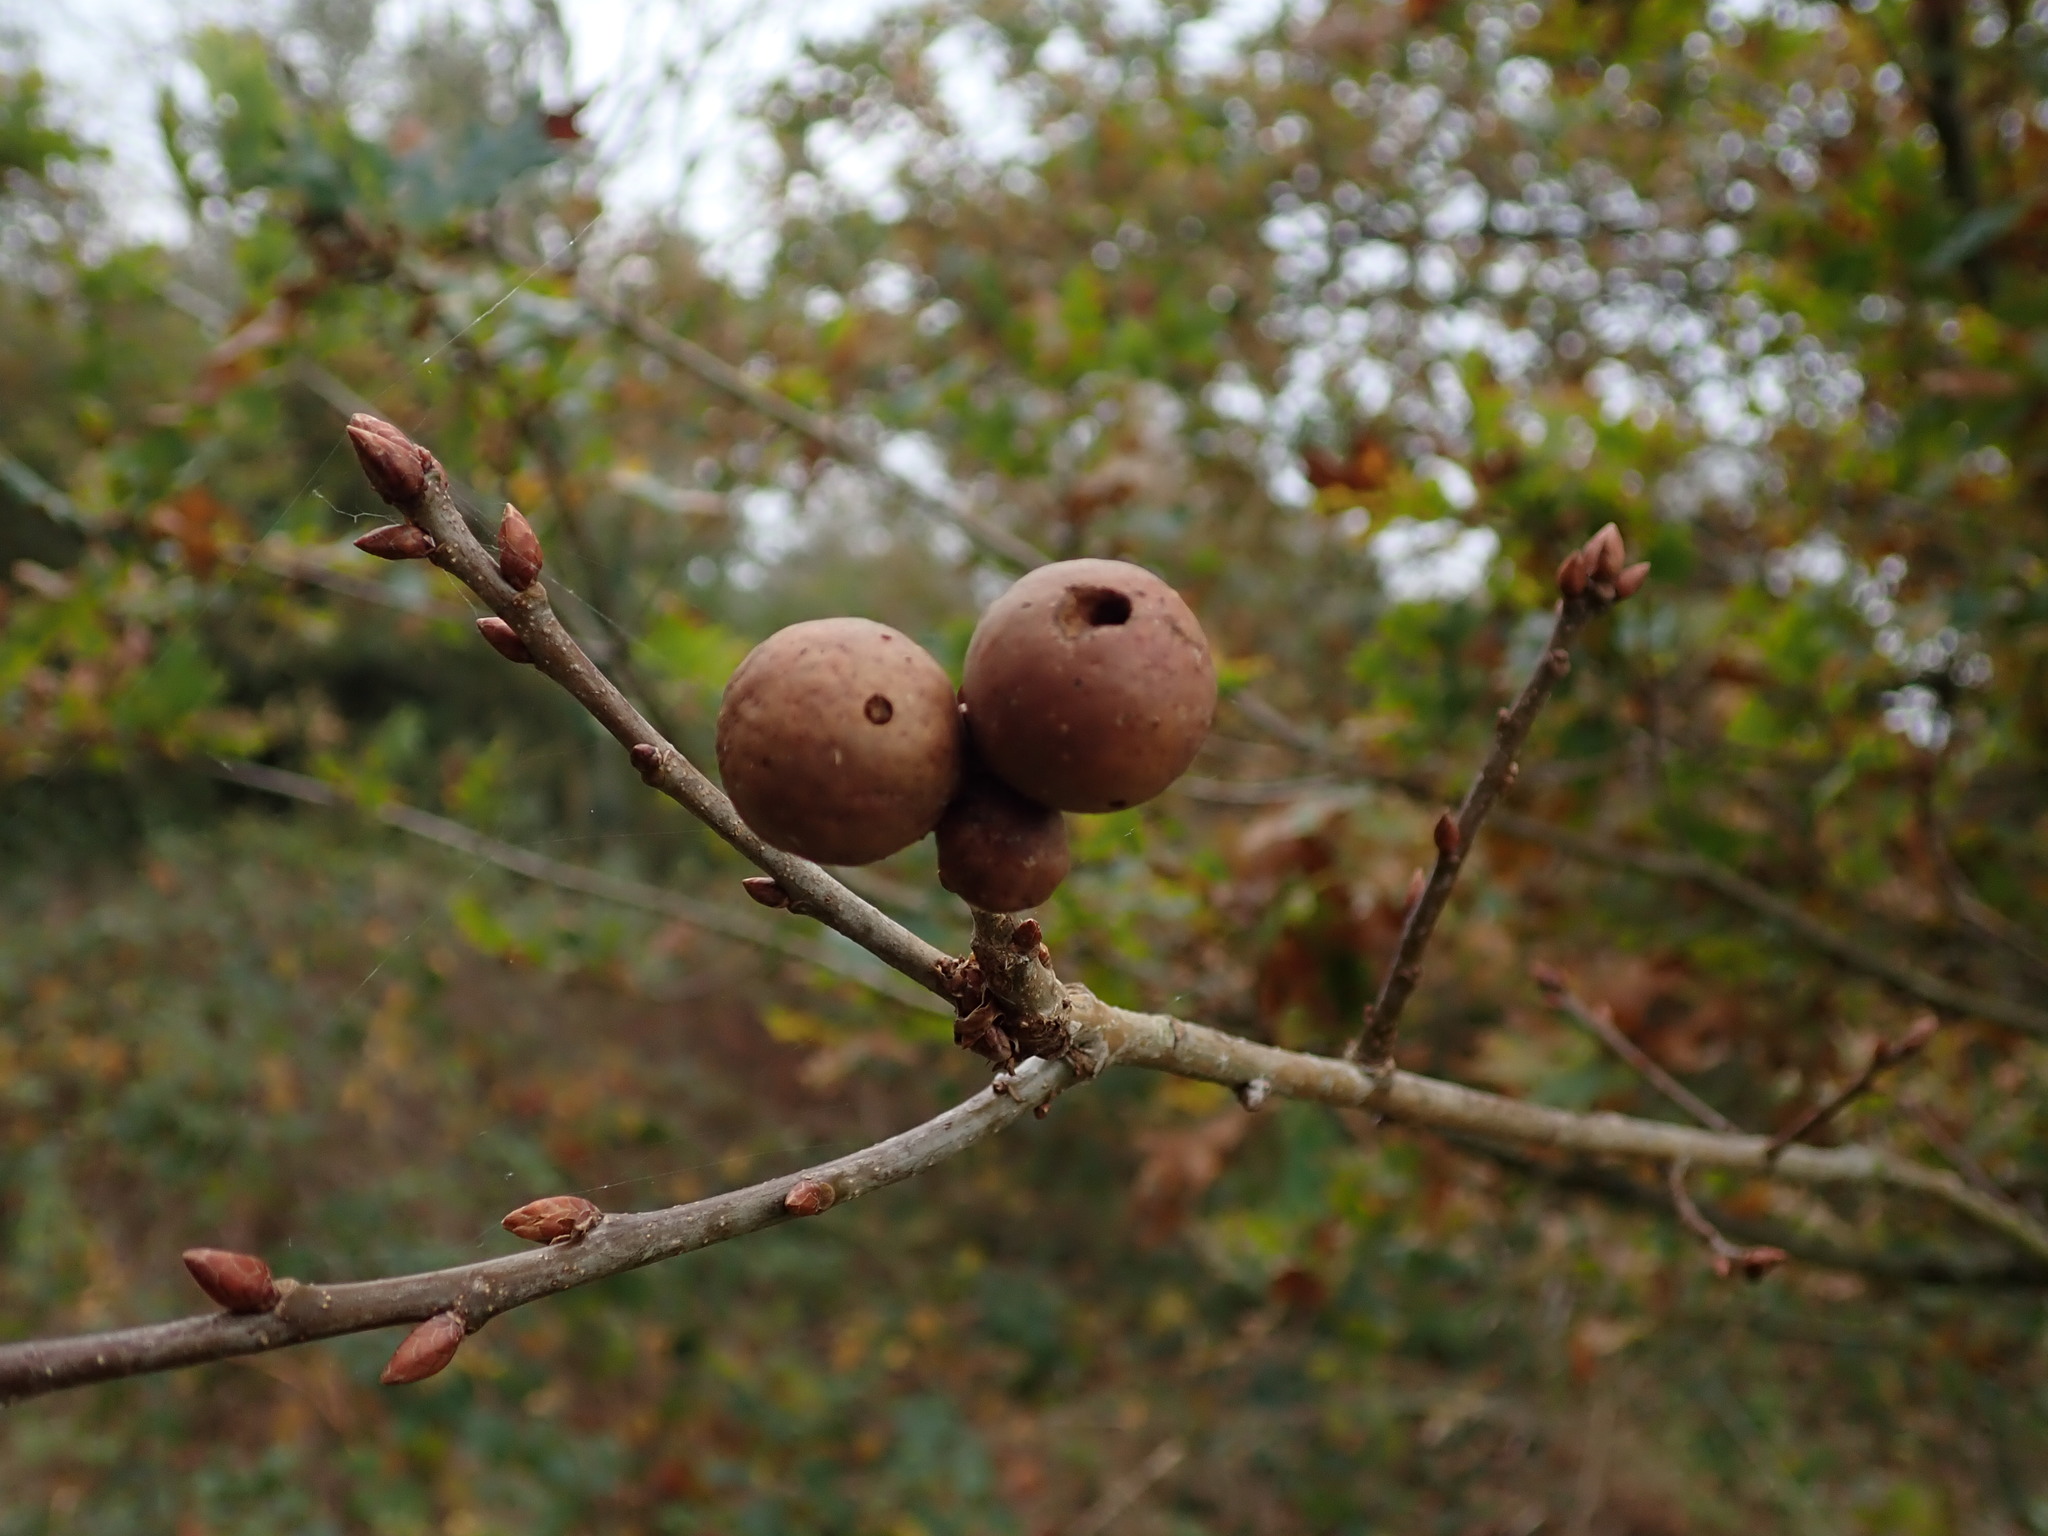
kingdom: Animalia
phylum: Arthropoda
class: Insecta
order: Hymenoptera
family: Cynipidae
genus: Andricus
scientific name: Andricus kollari
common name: Marble gall
